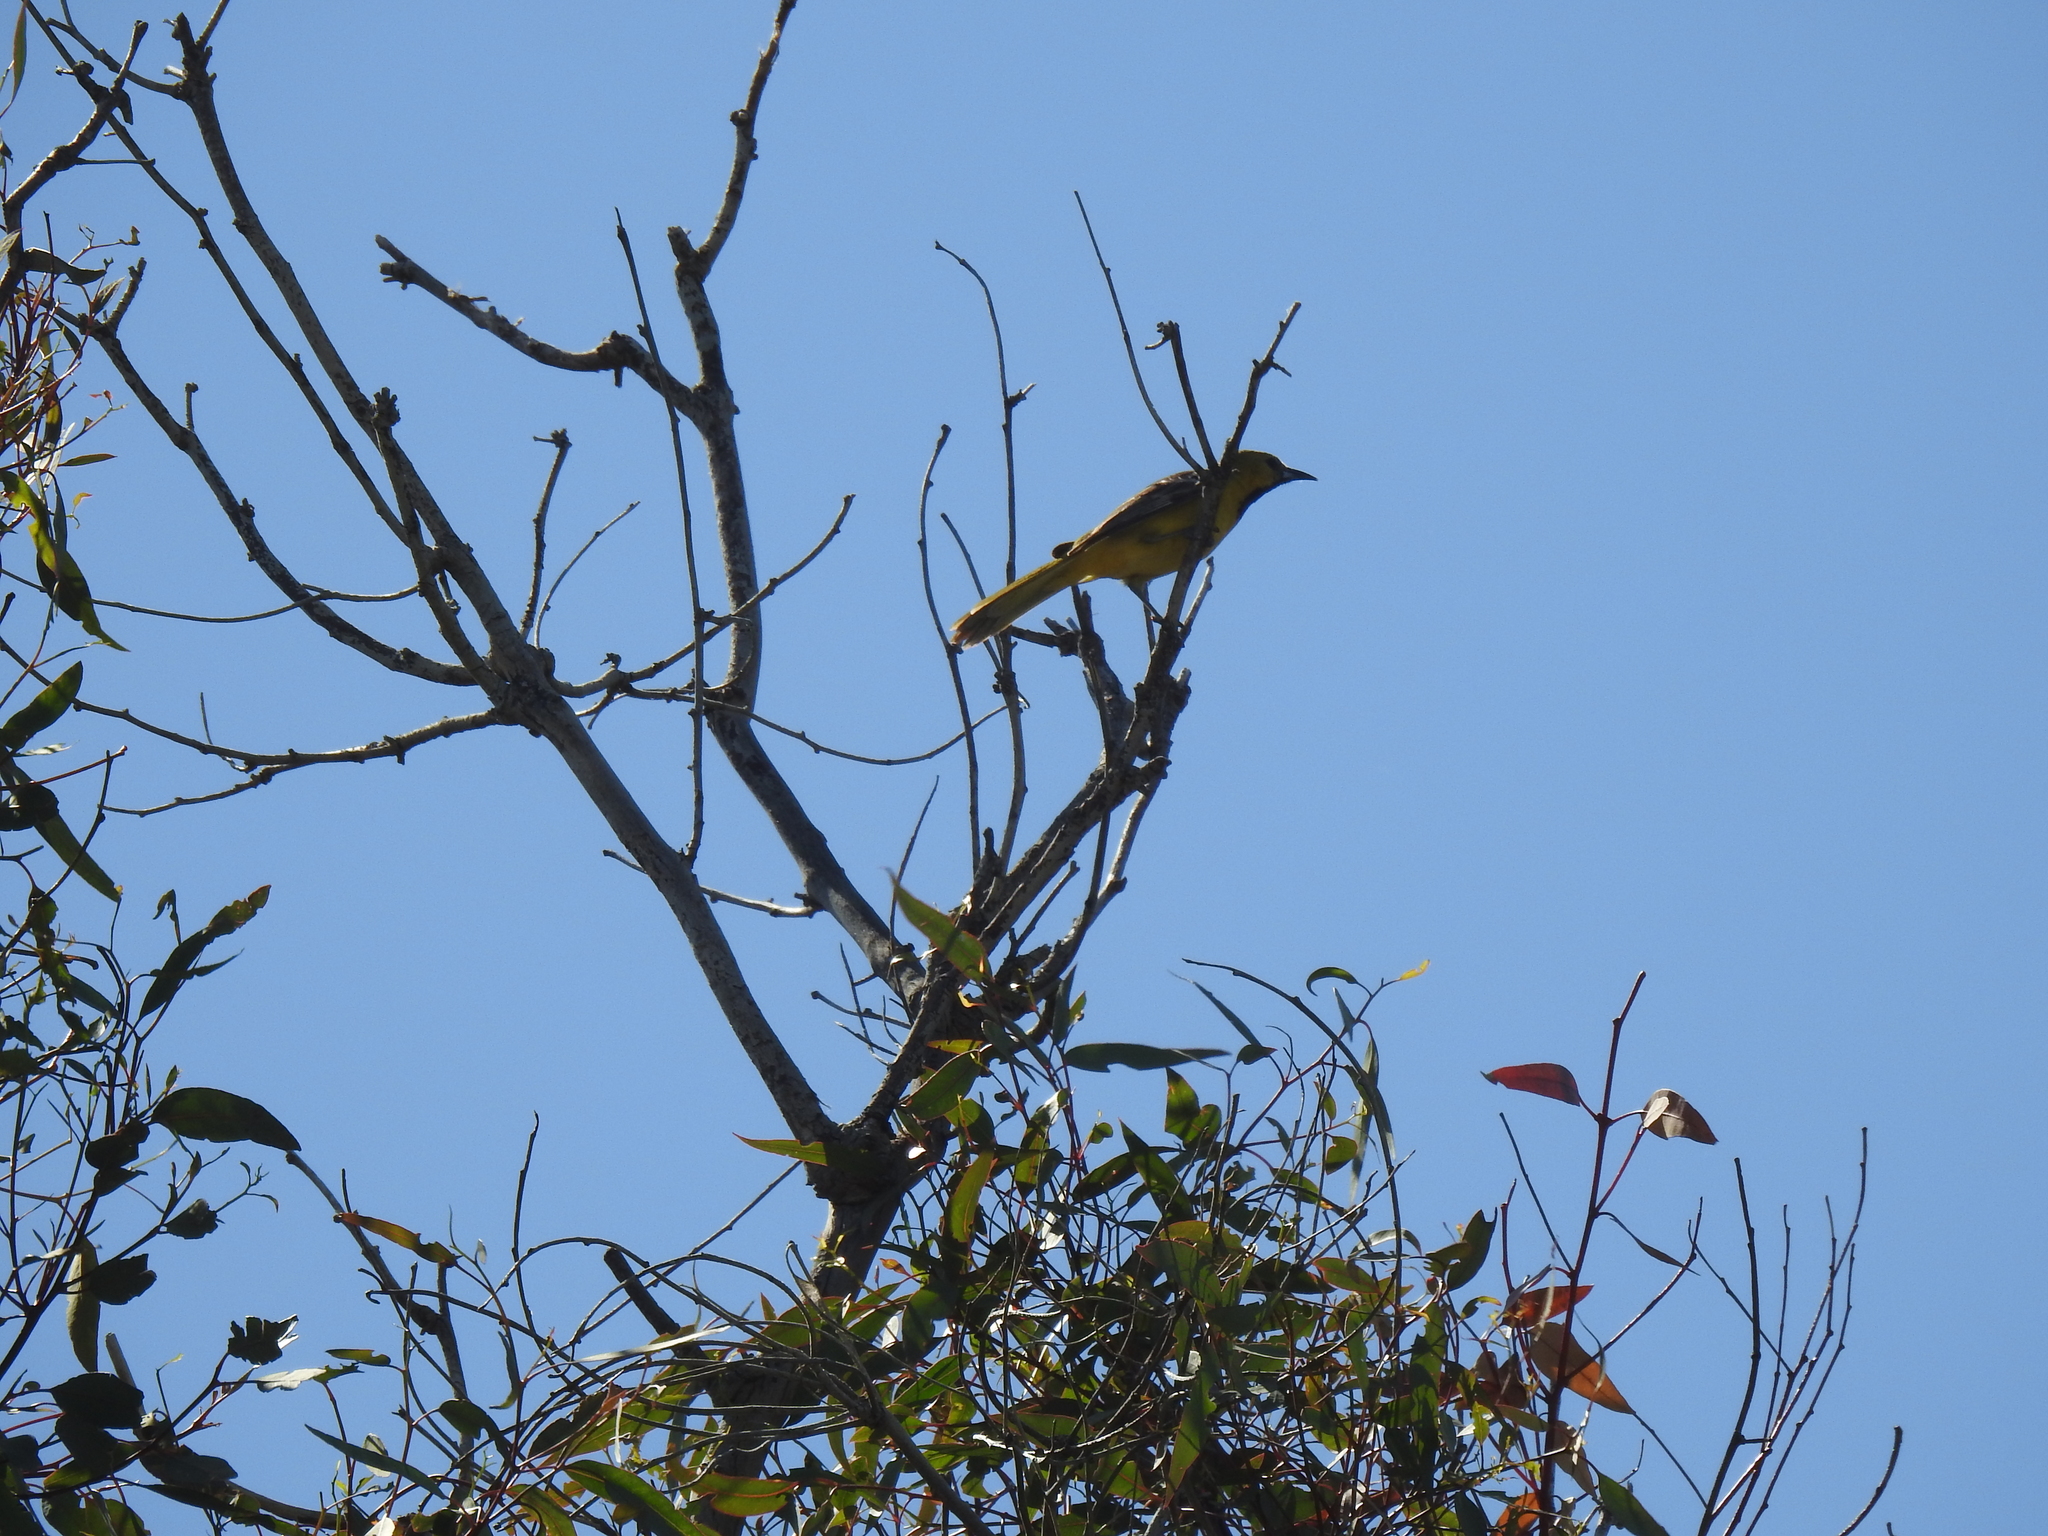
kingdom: Animalia
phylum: Chordata
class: Aves
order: Passeriformes
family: Icteridae
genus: Icterus
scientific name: Icterus cucullatus
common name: Hooded oriole
